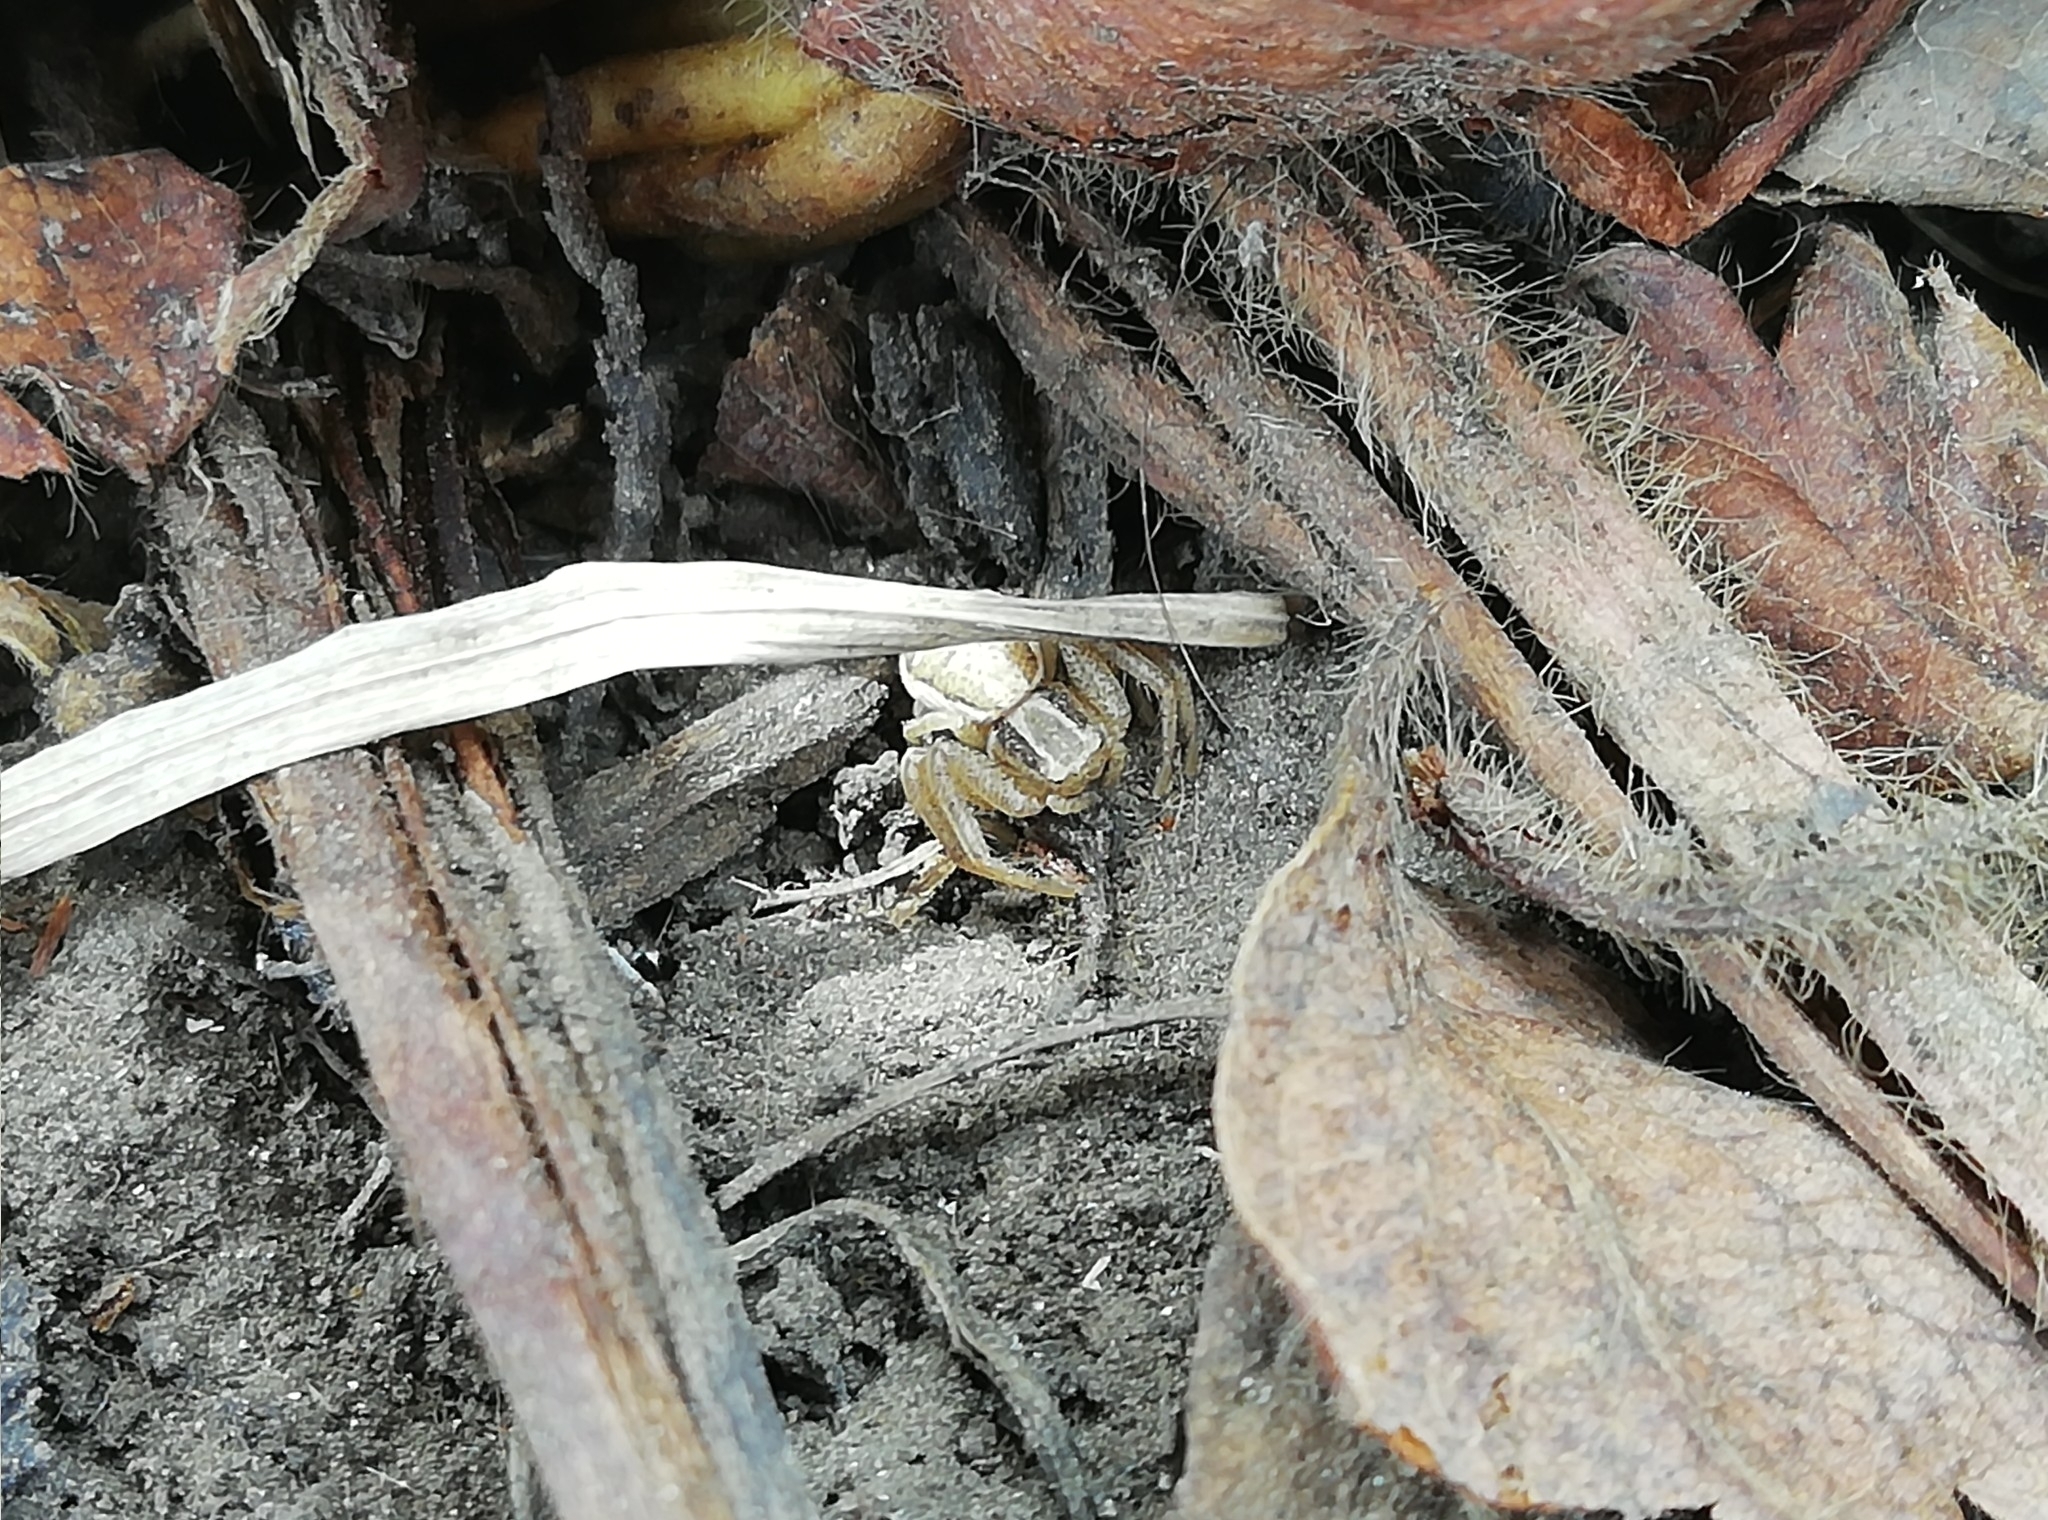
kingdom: Animalia
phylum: Arthropoda
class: Arachnida
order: Araneae
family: Thomisidae
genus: Xysticus
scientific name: Xysticus ulmi
